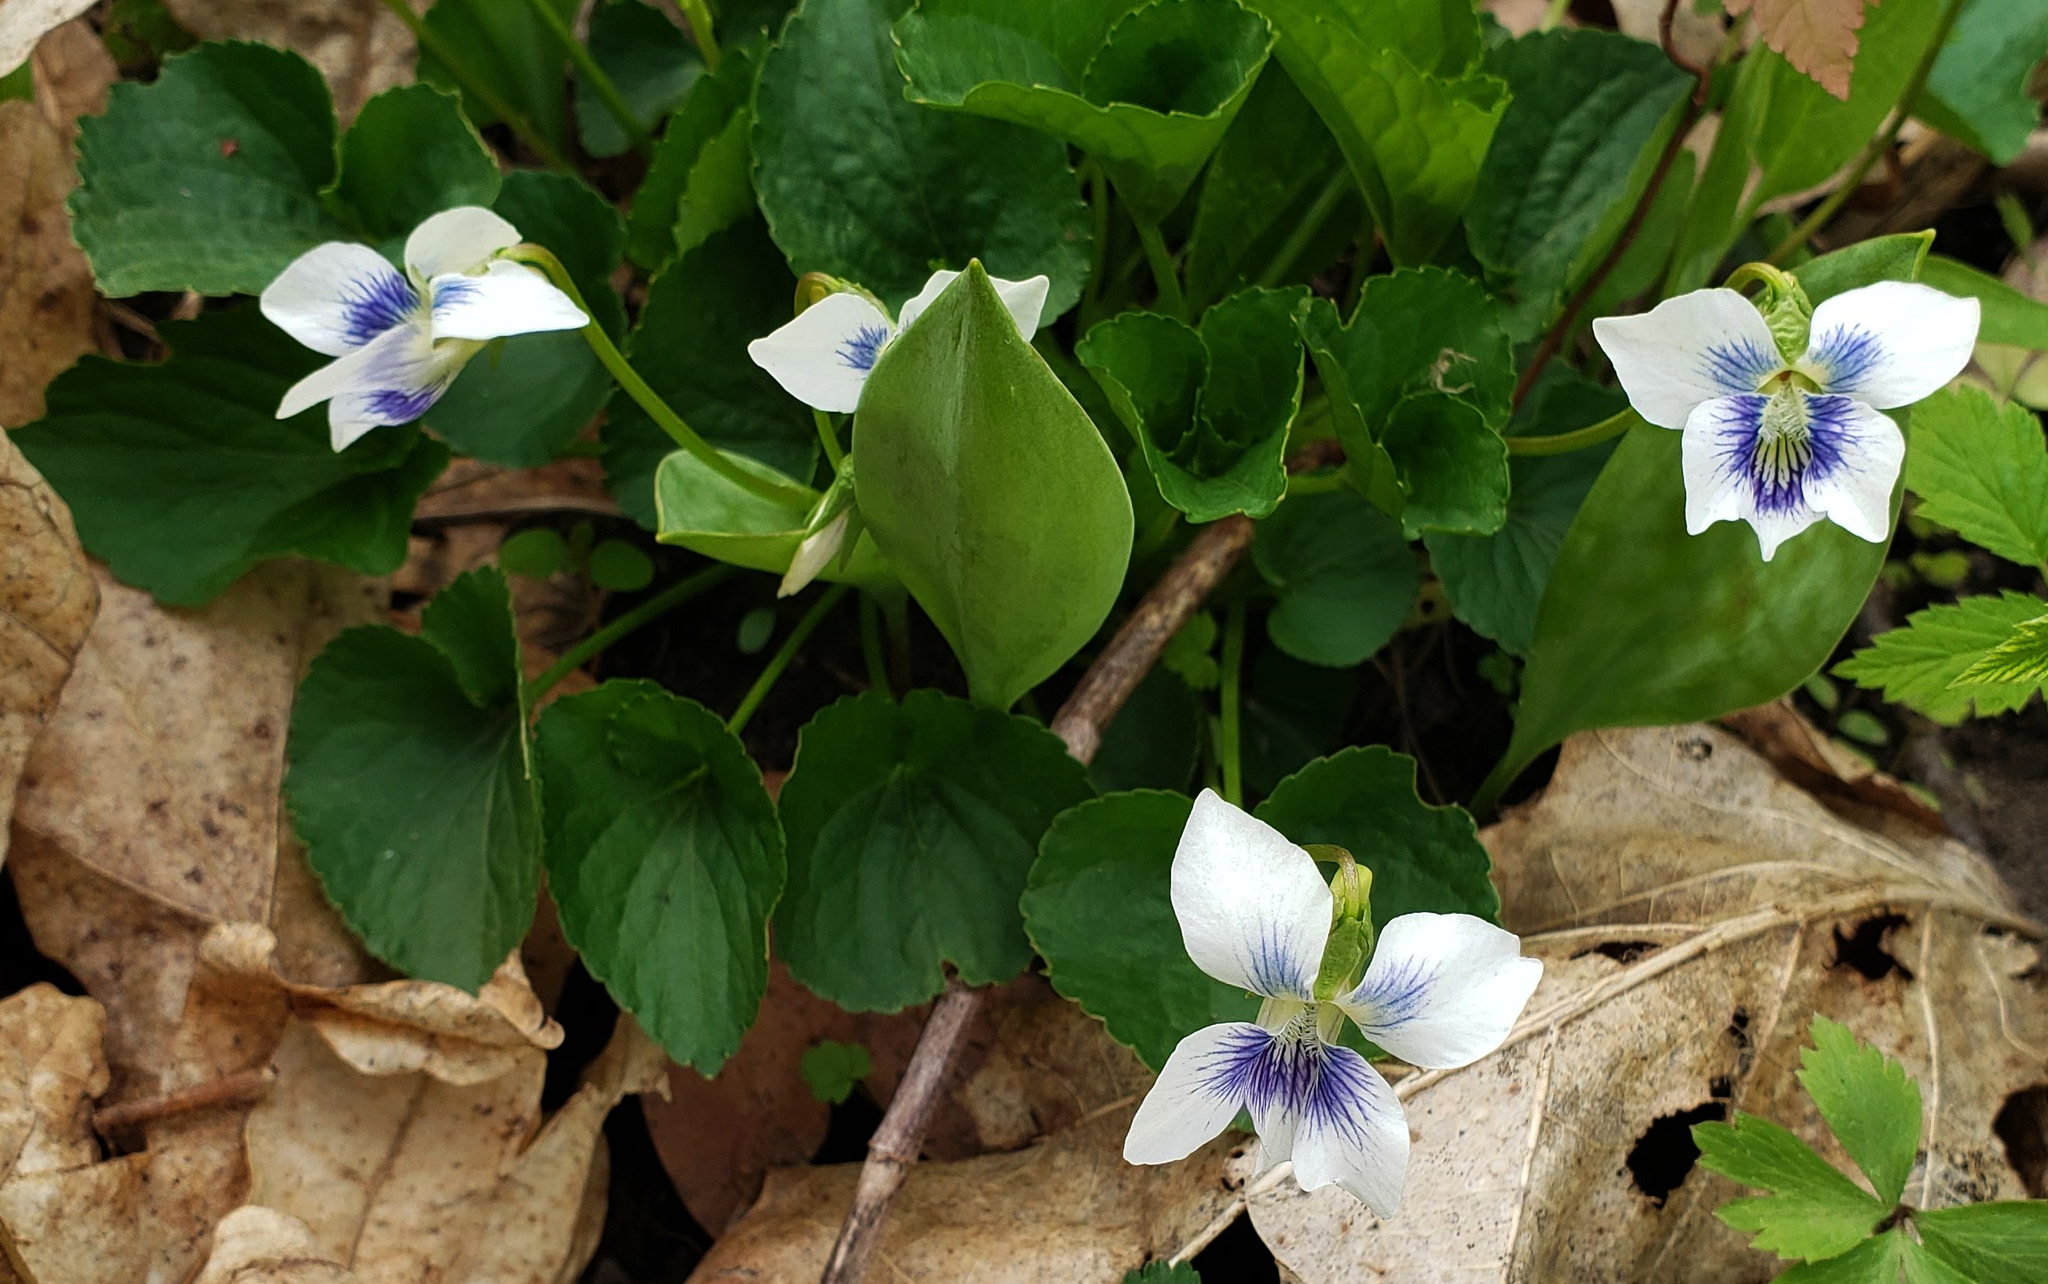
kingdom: Plantae
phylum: Tracheophyta
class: Magnoliopsida
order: Malpighiales
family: Violaceae
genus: Viola
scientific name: Viola sororia
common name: Dooryard violet
